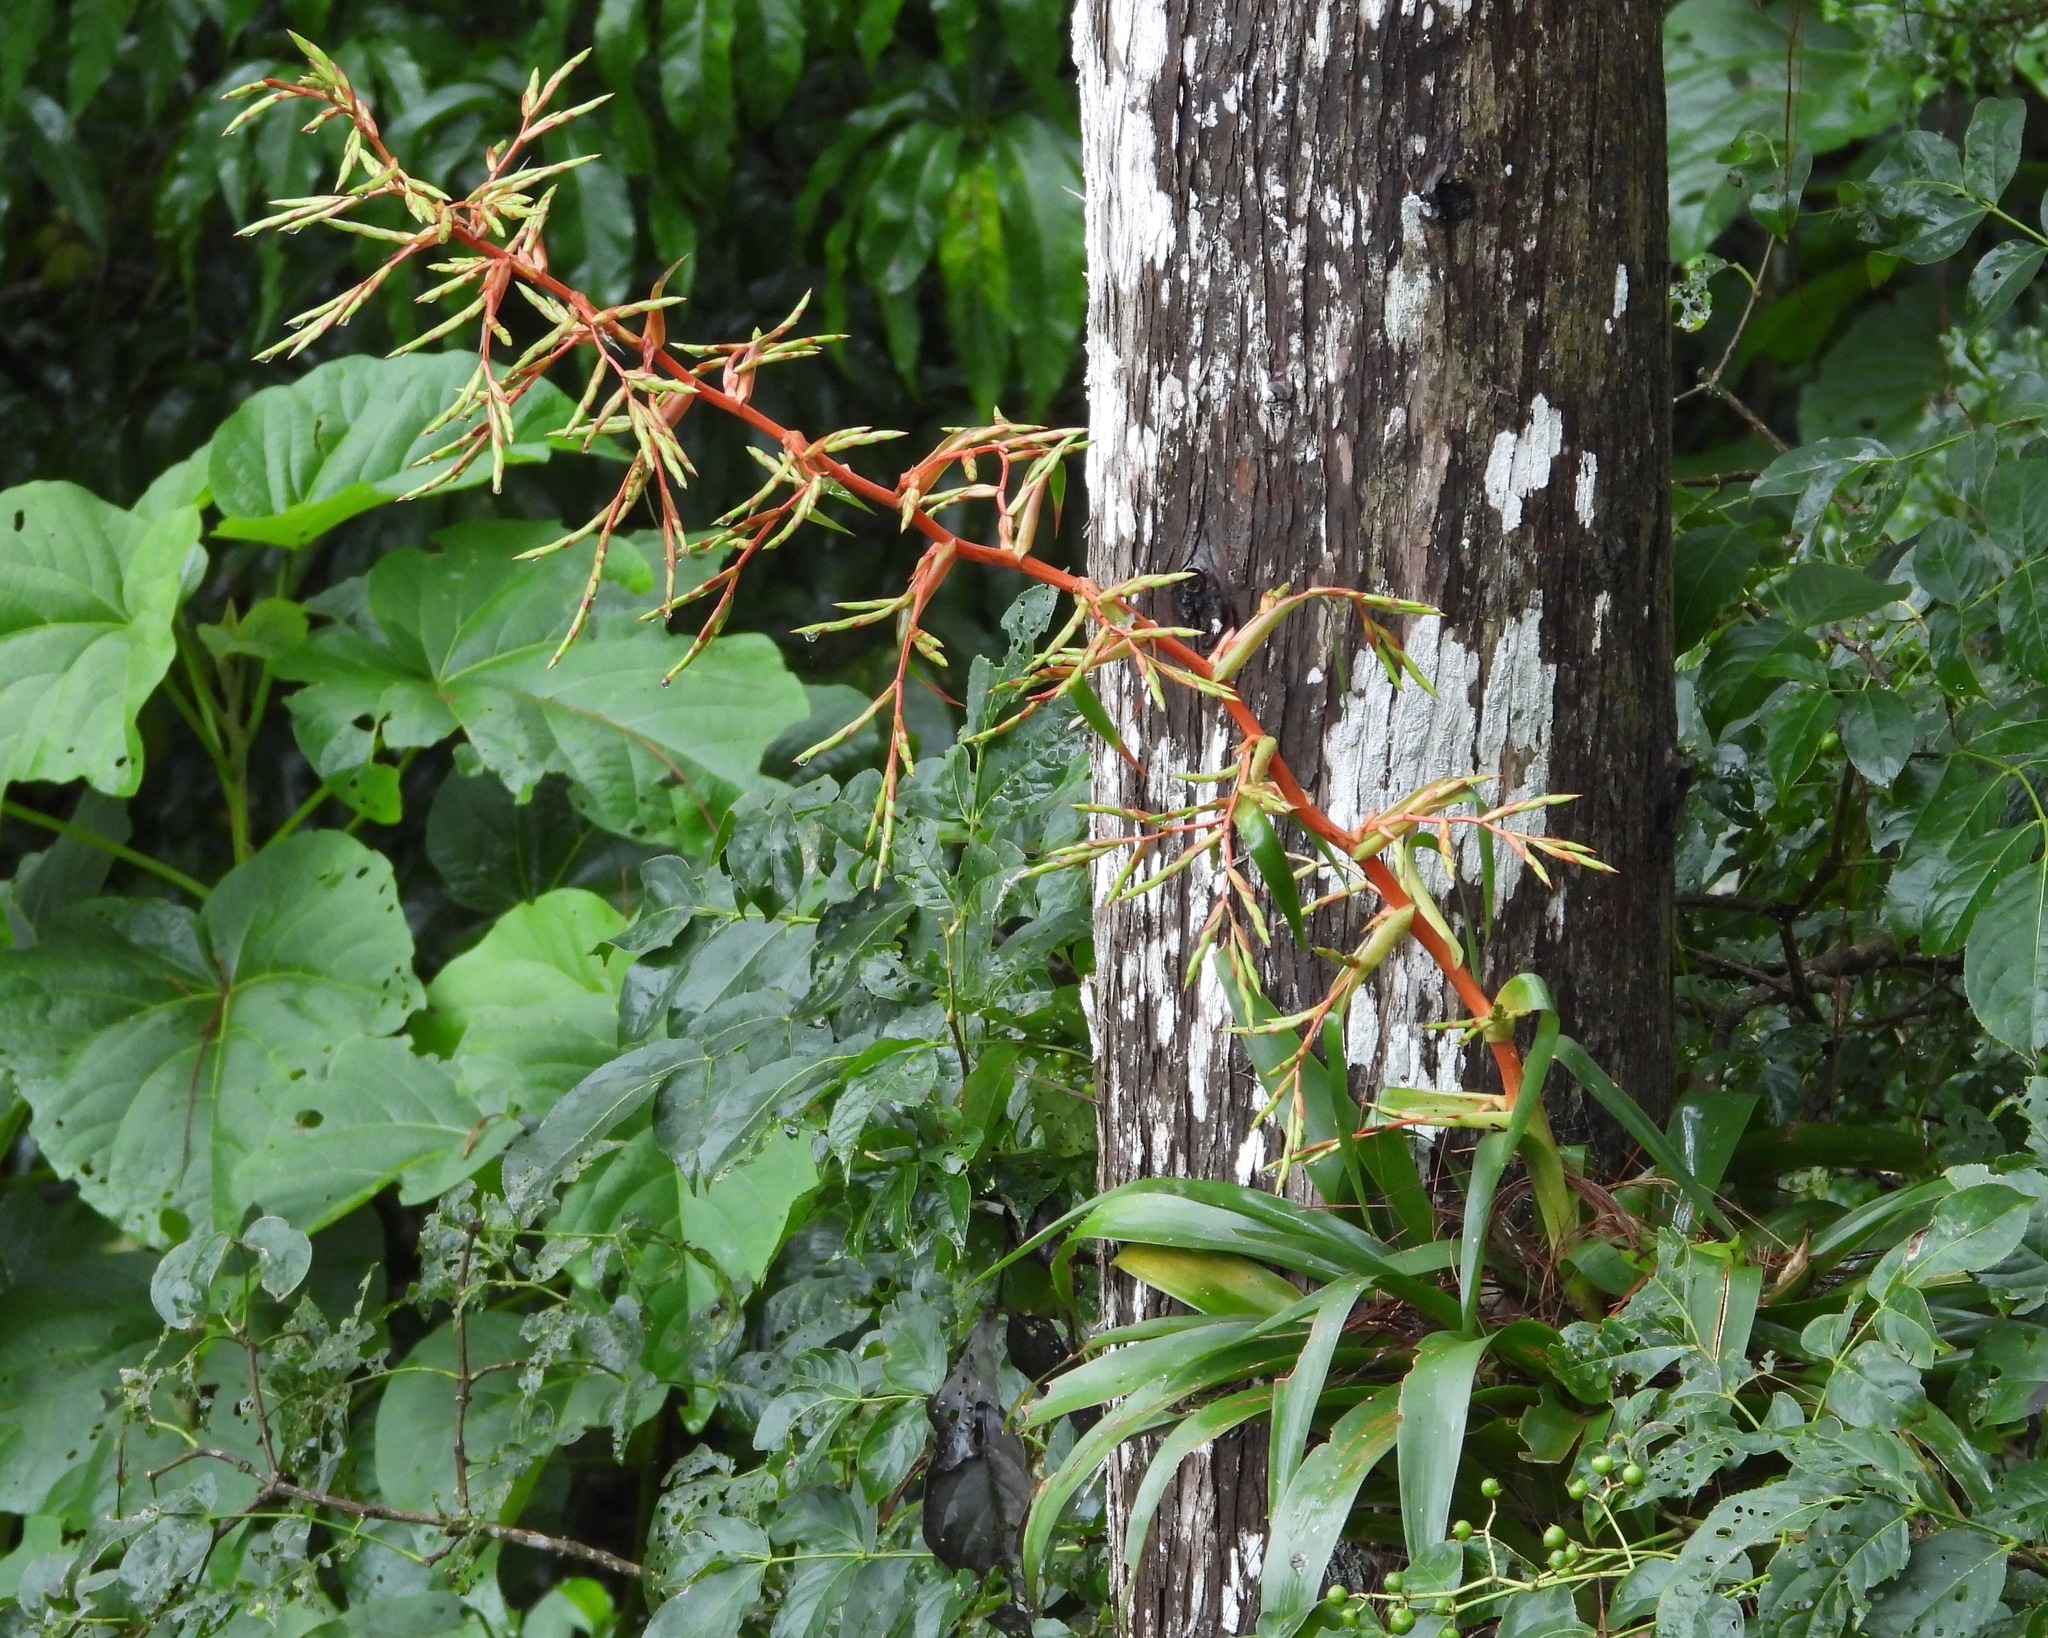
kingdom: Plantae
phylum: Tracheophyta
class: Liliopsida
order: Poales
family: Bromeliaceae
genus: Tillandsia
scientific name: Tillandsia guatemalensis
